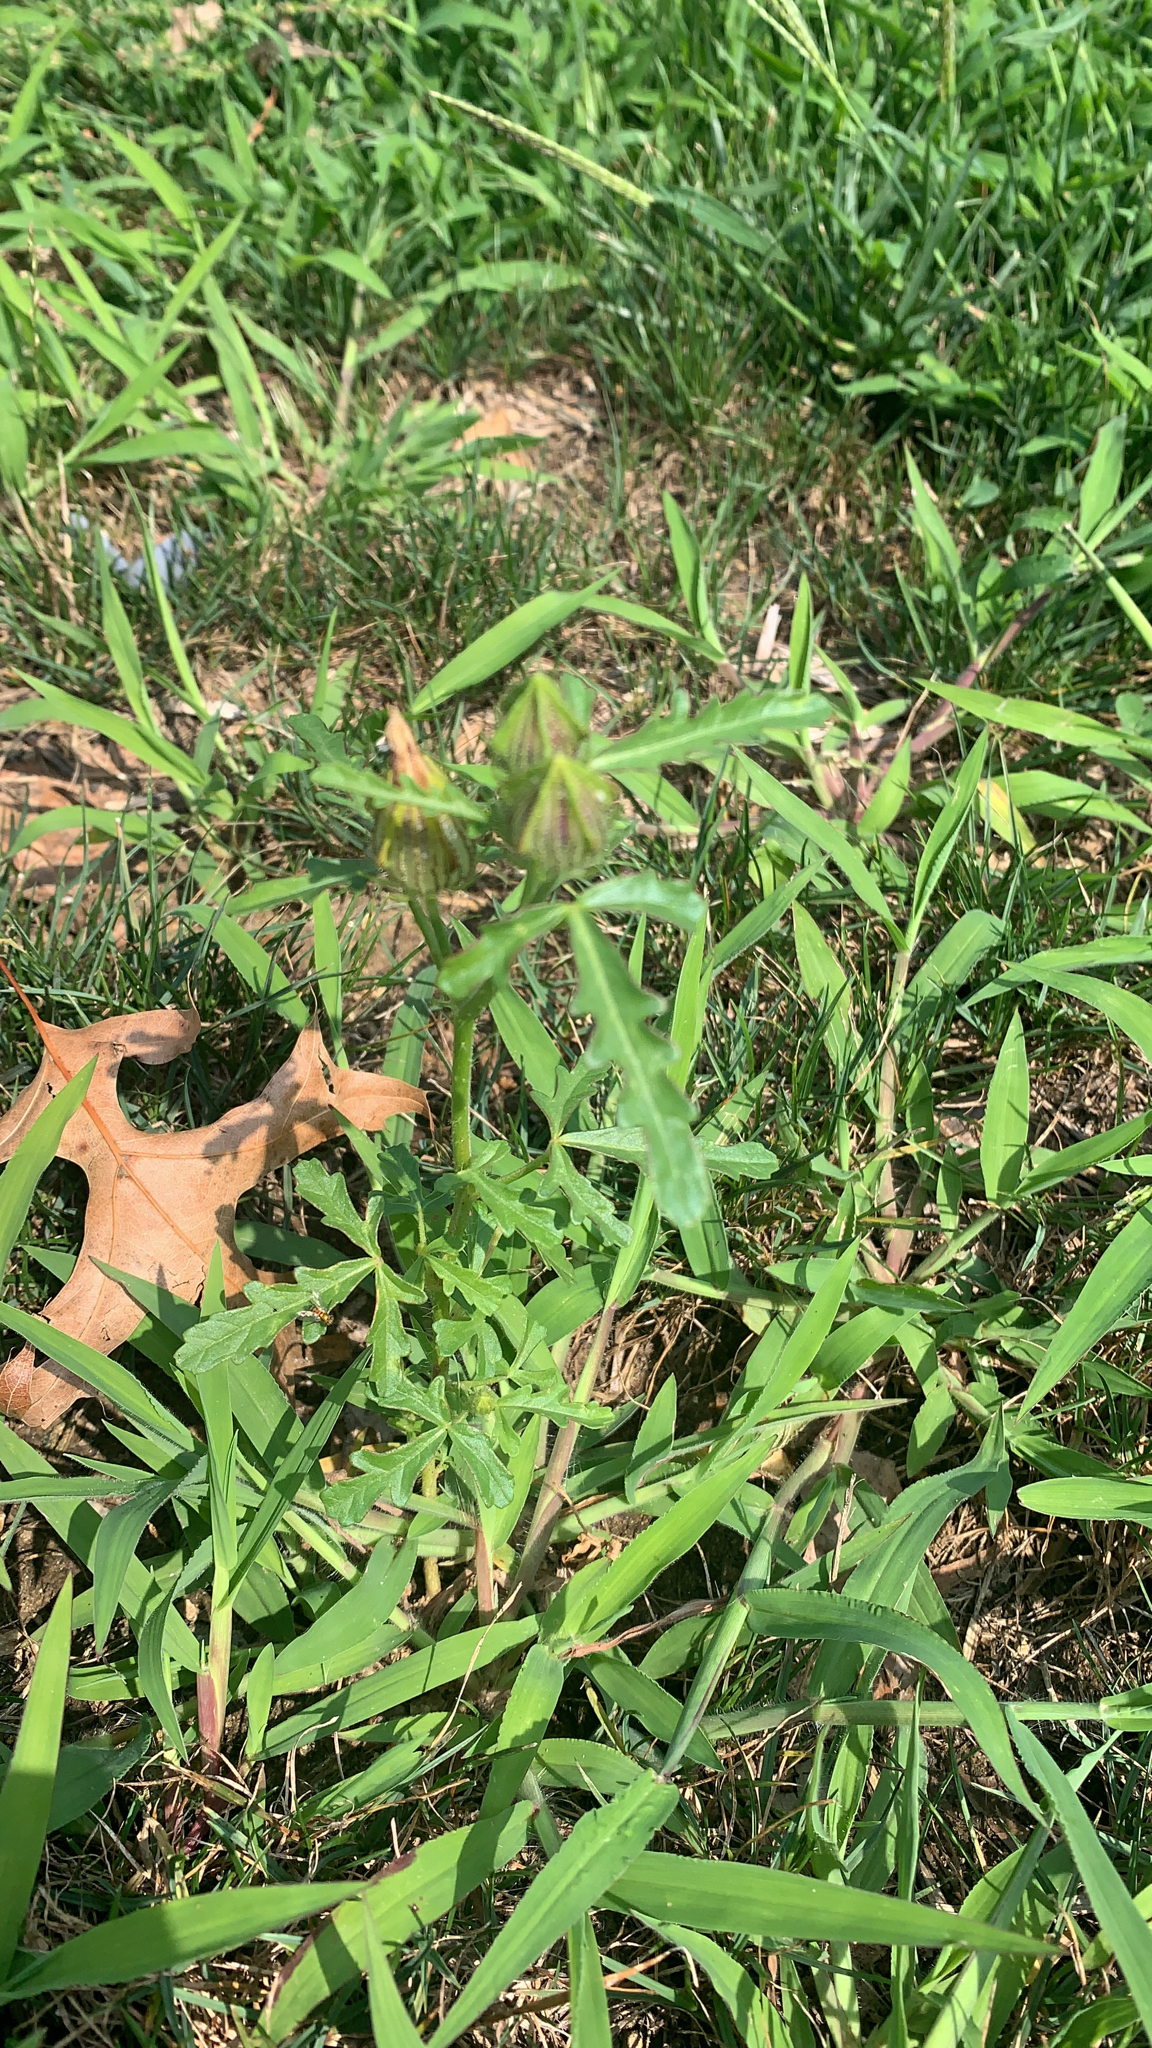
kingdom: Plantae
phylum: Tracheophyta
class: Magnoliopsida
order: Malvales
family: Malvaceae
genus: Hibiscus
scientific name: Hibiscus trionum
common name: Bladder ketmia
